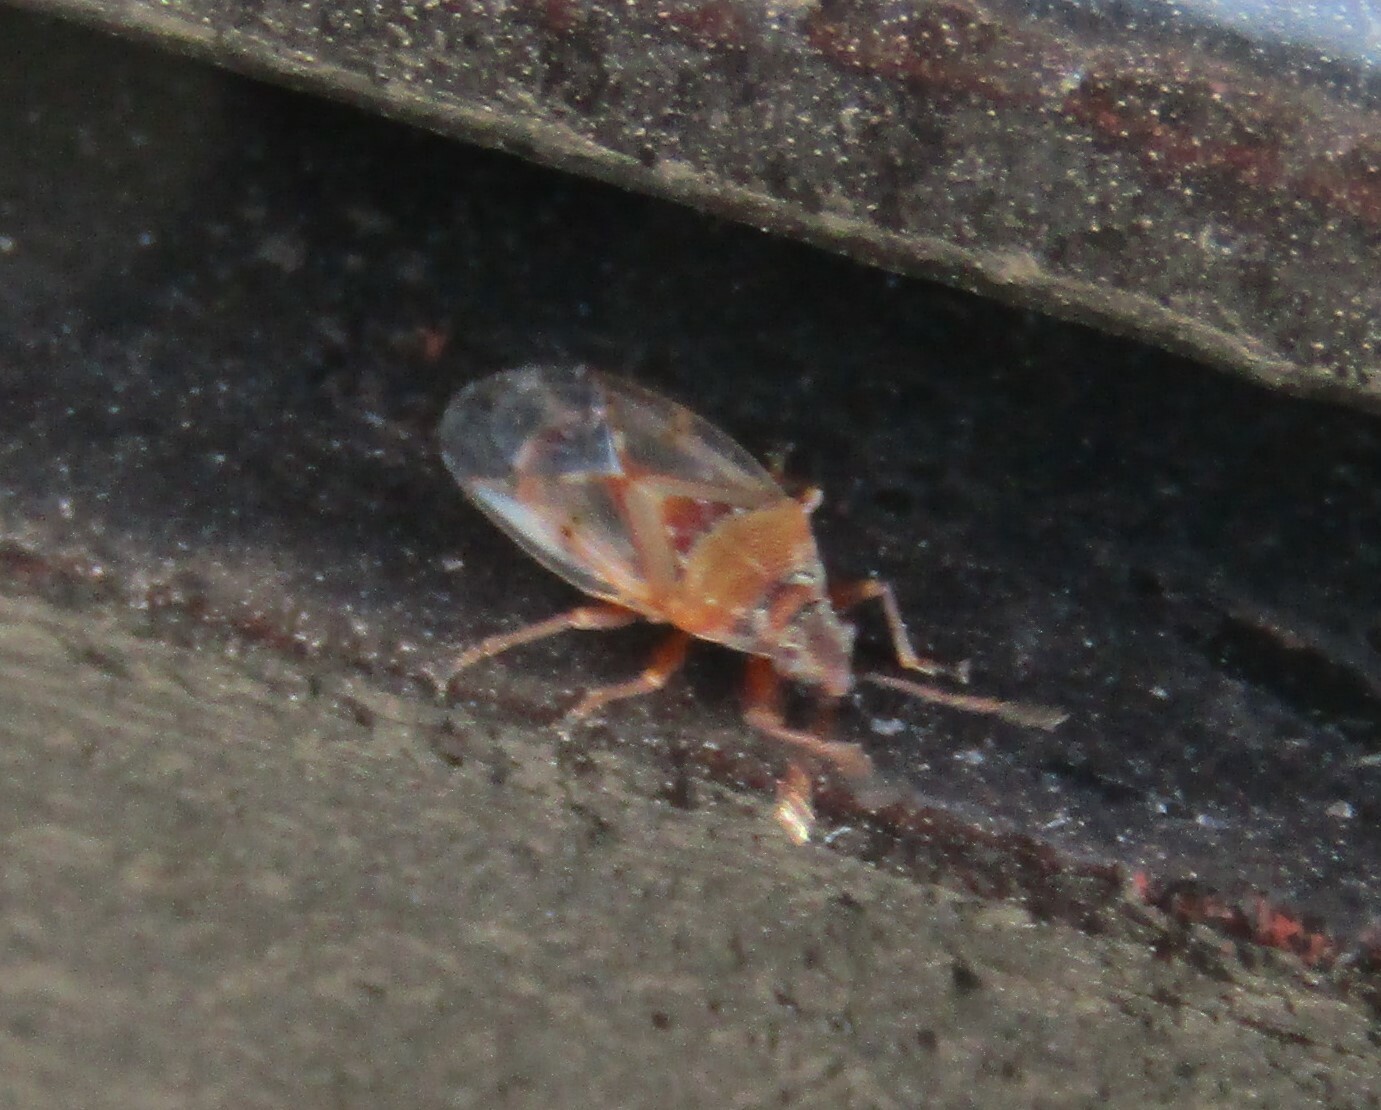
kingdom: Animalia
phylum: Arthropoda
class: Insecta
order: Hemiptera
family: Lygaeidae
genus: Kleidocerys
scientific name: Kleidocerys resedae
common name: Birch catkin bug
